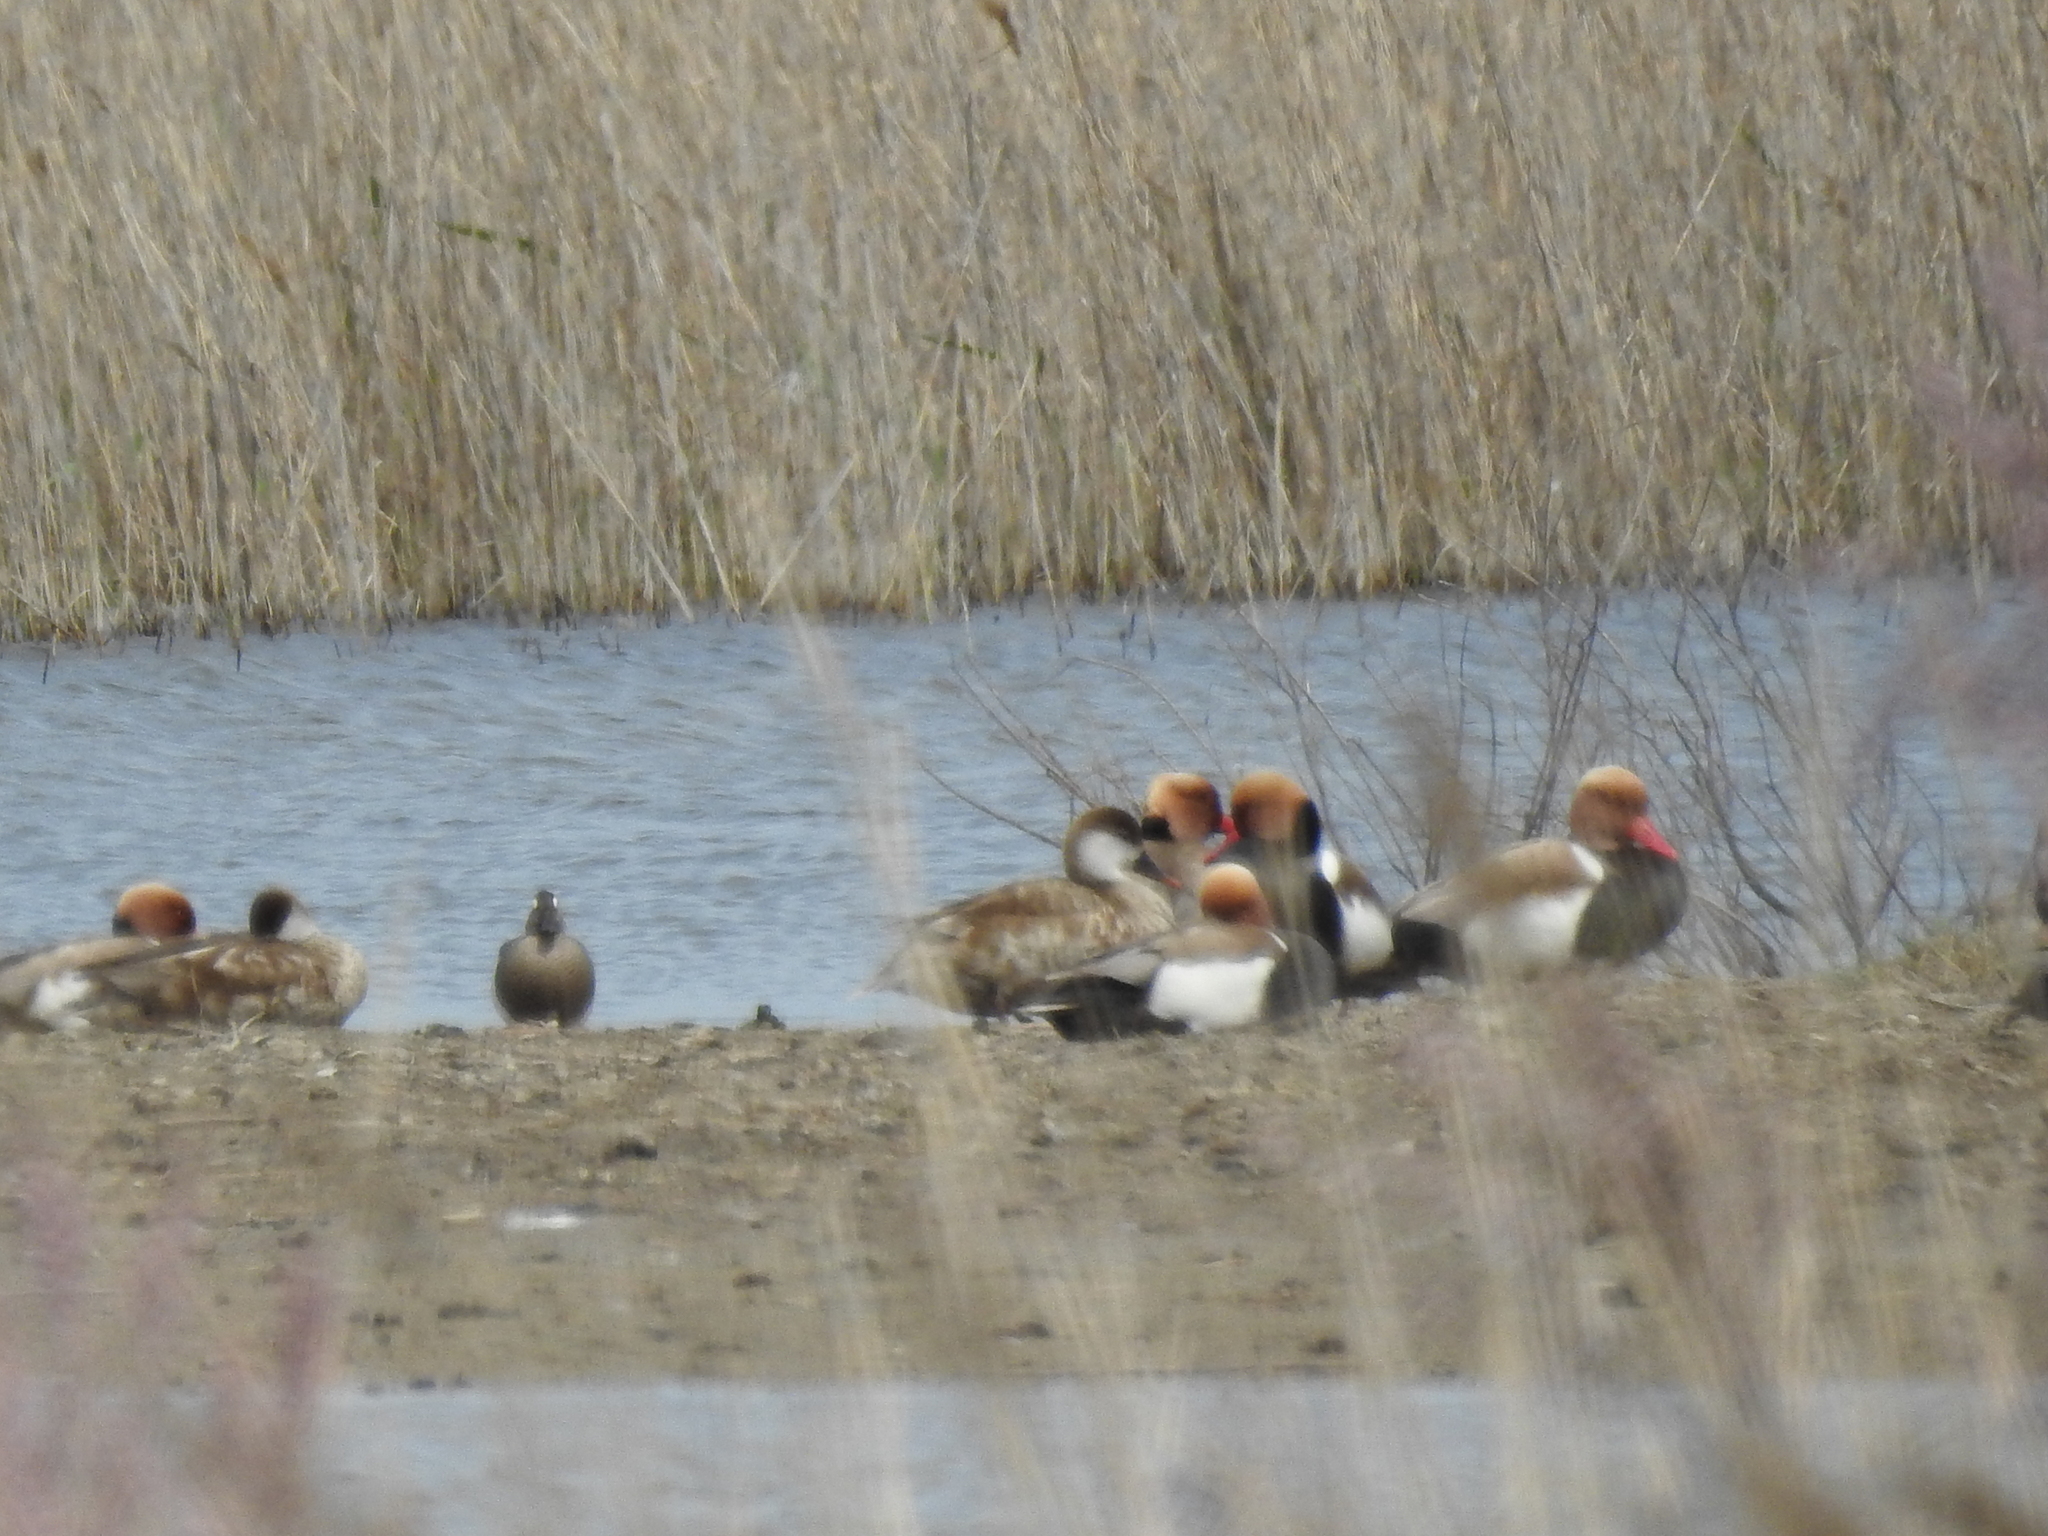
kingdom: Animalia
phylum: Chordata
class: Aves
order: Anseriformes
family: Anatidae
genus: Netta
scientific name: Netta rufina
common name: Red-crested pochard
